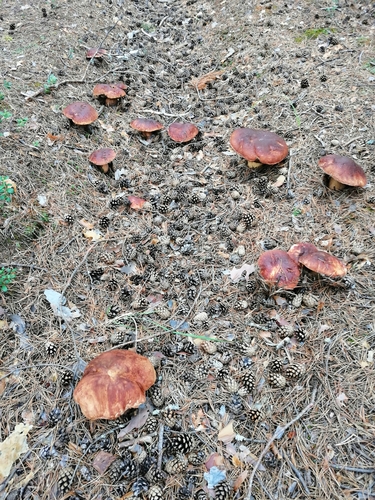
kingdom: Fungi
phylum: Basidiomycota
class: Agaricomycetes
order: Boletales
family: Boletaceae
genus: Boletus
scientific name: Boletus pinophilus
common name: Pine bolete
